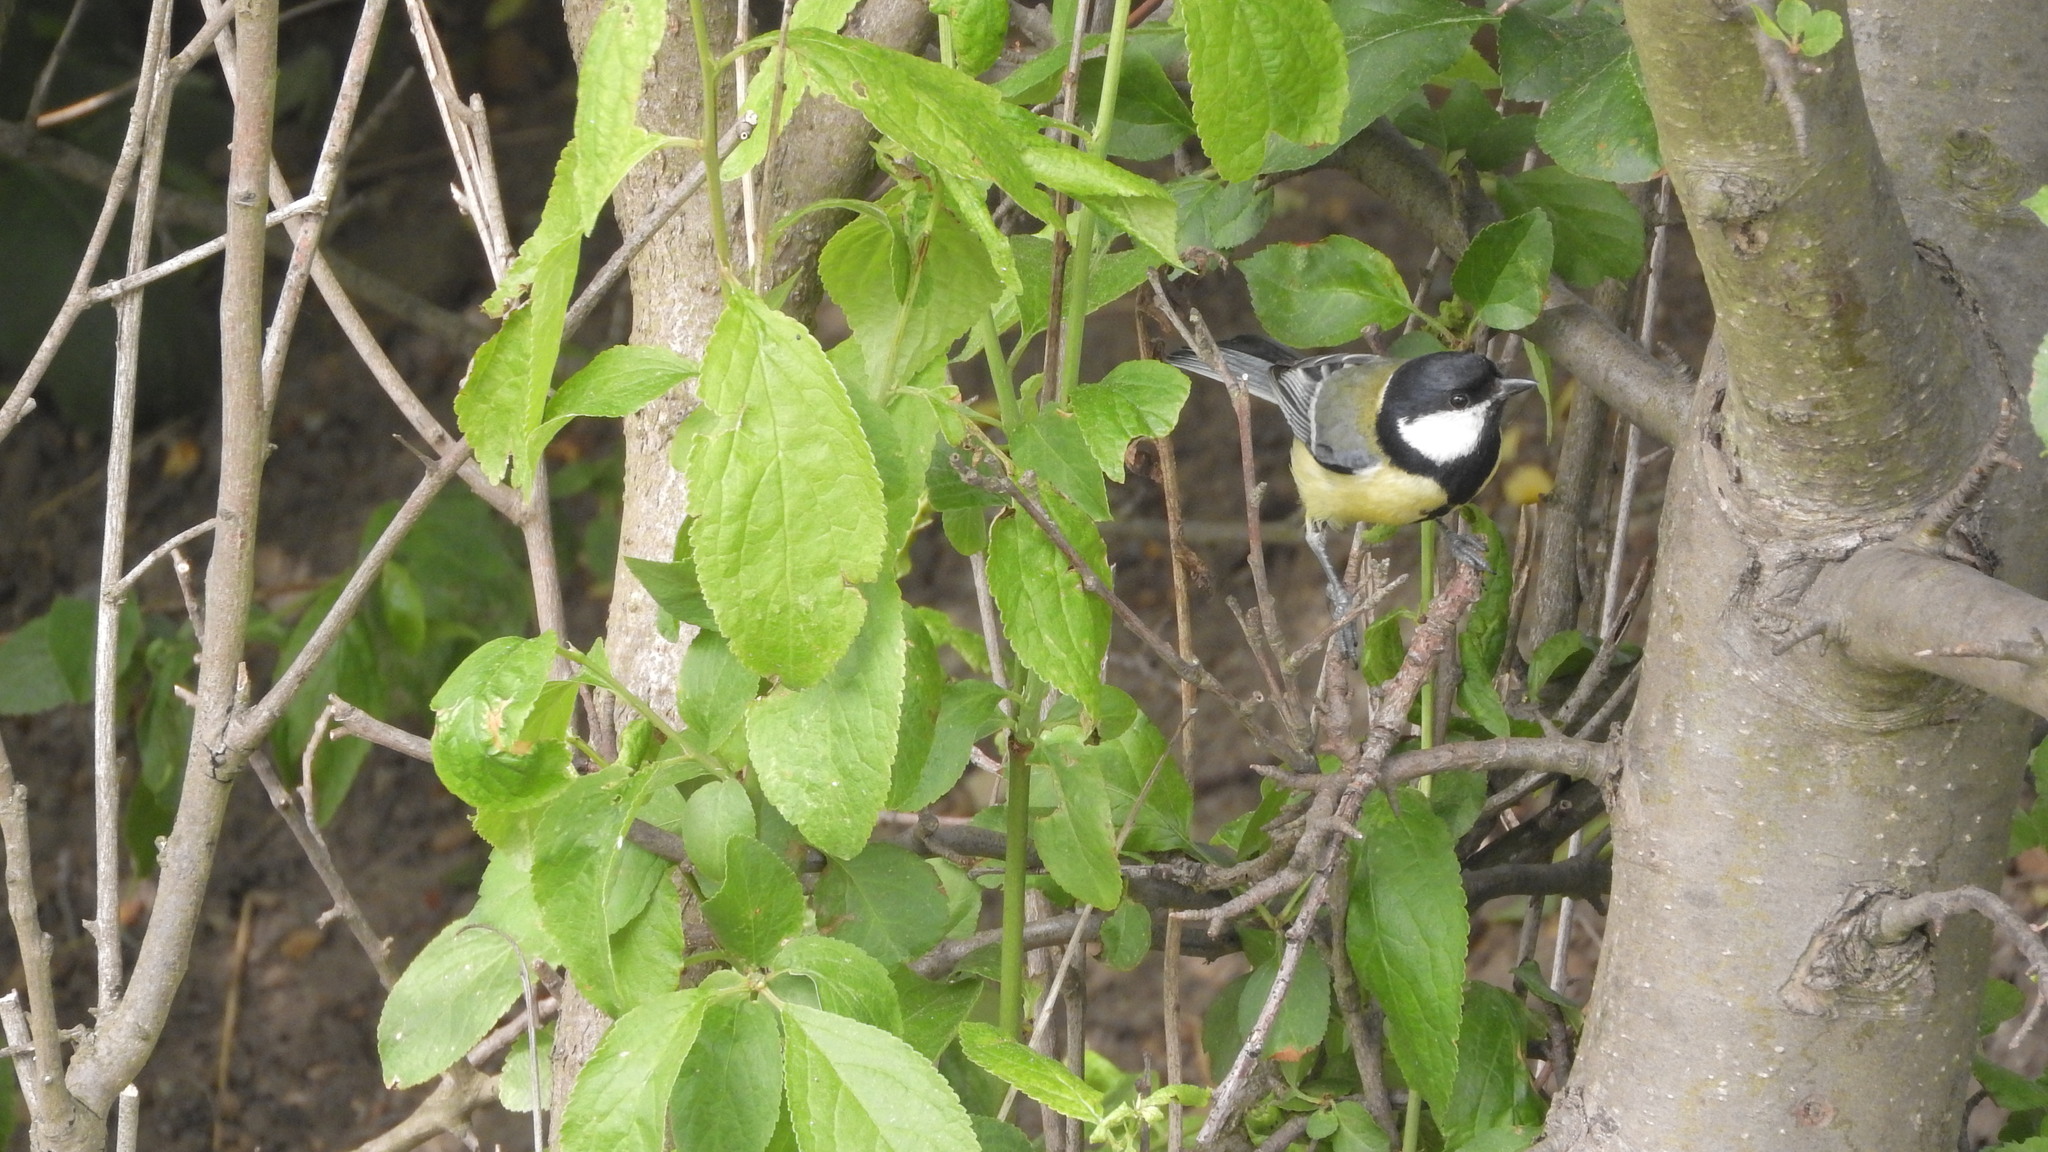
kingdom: Animalia
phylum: Chordata
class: Aves
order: Passeriformes
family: Paridae
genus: Parus
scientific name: Parus major
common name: Great tit
